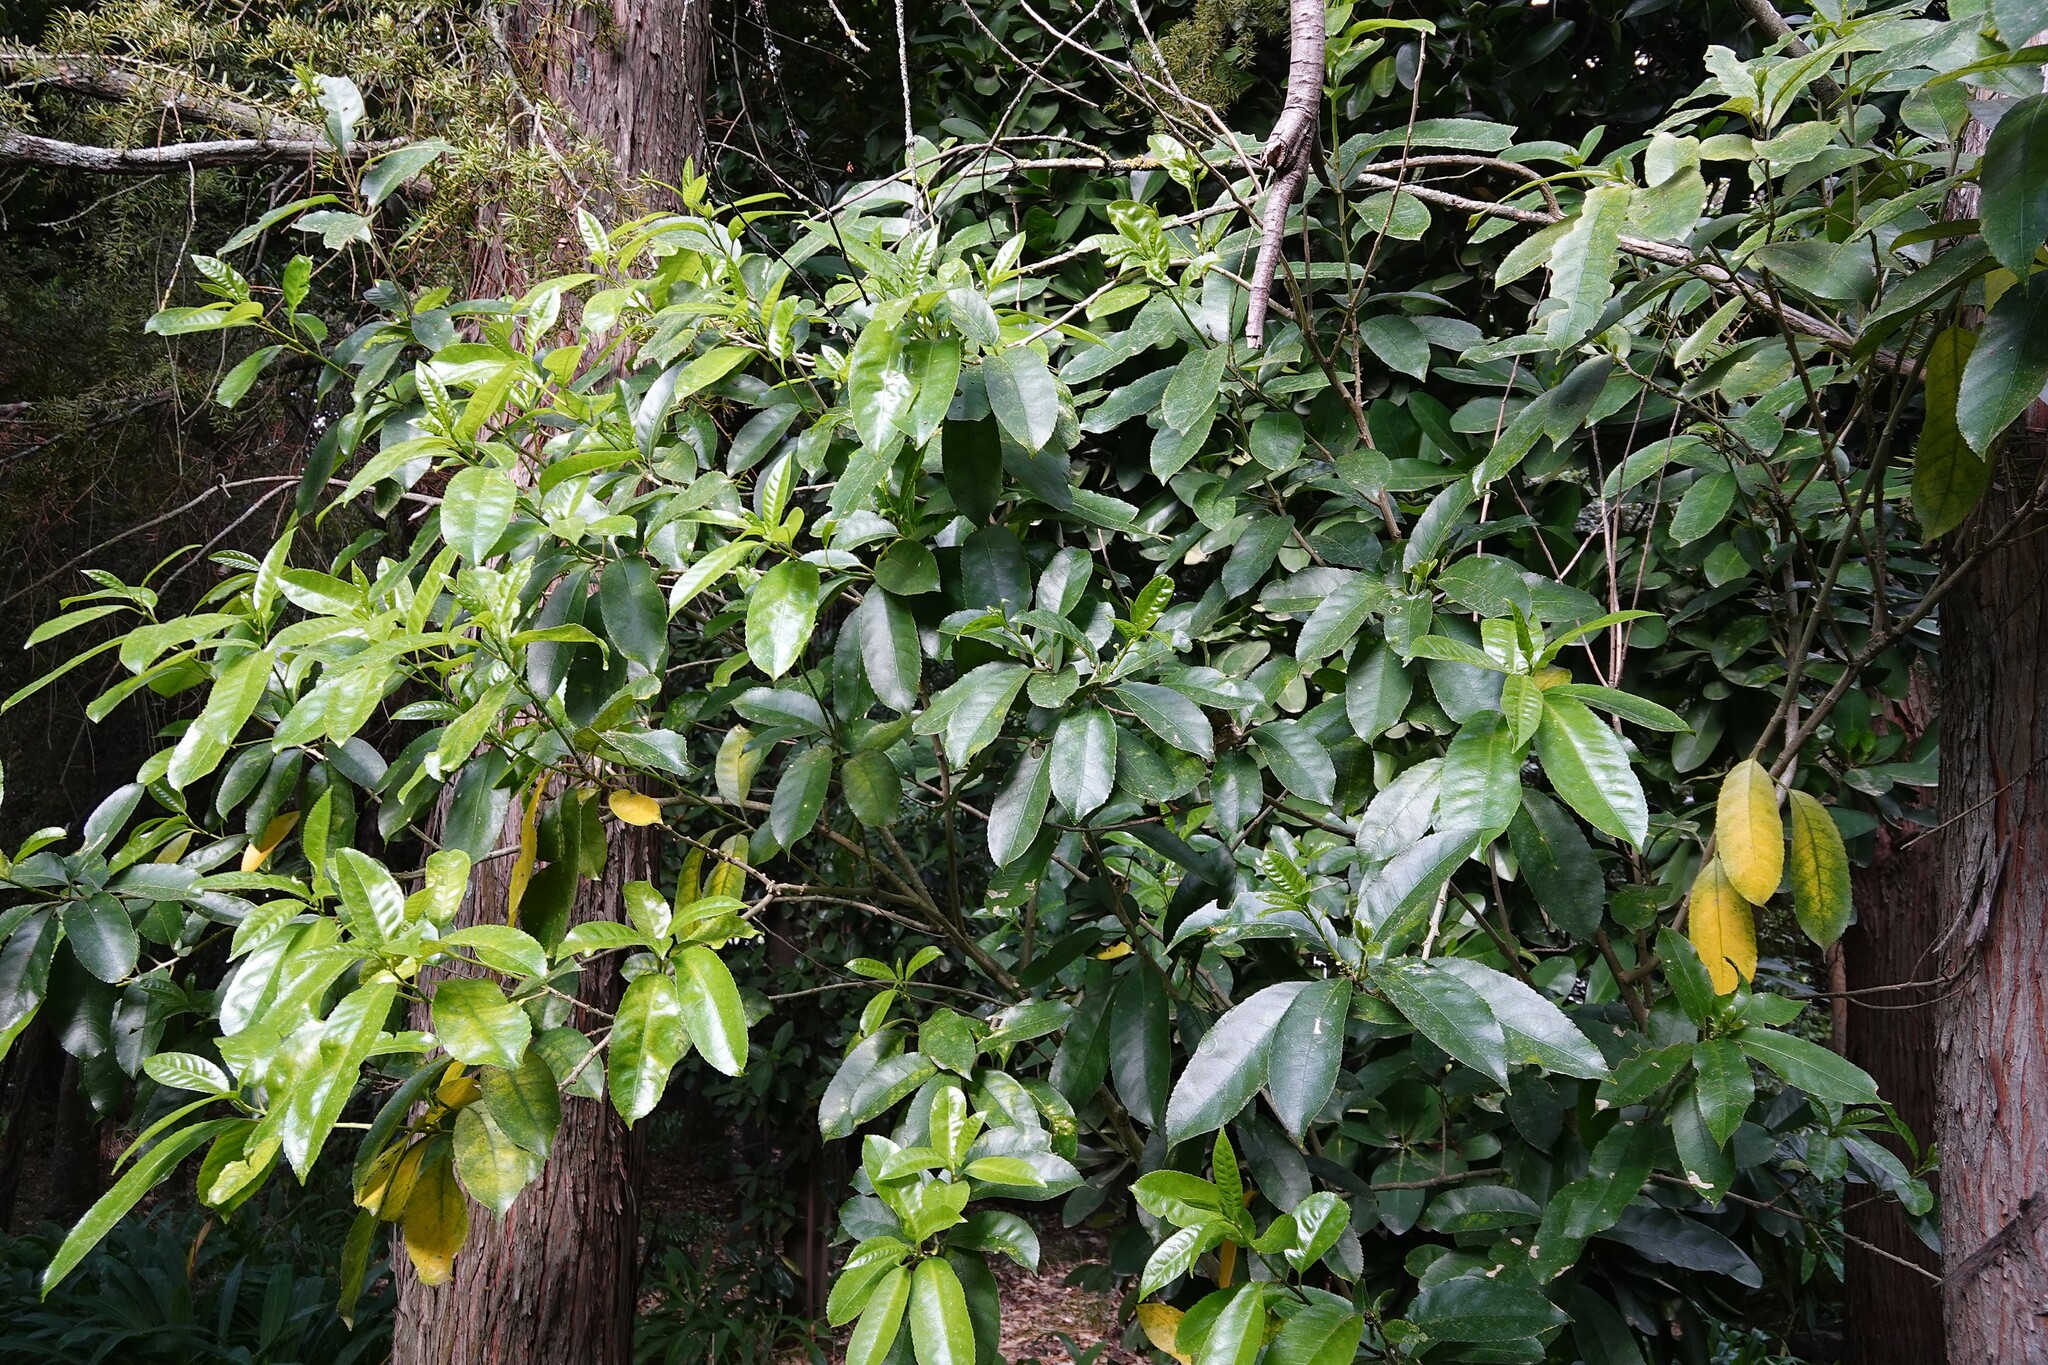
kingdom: Plantae
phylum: Tracheophyta
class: Magnoliopsida
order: Malpighiales
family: Violaceae
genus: Melicytus
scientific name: Melicytus ramiflorus
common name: Mahoe
